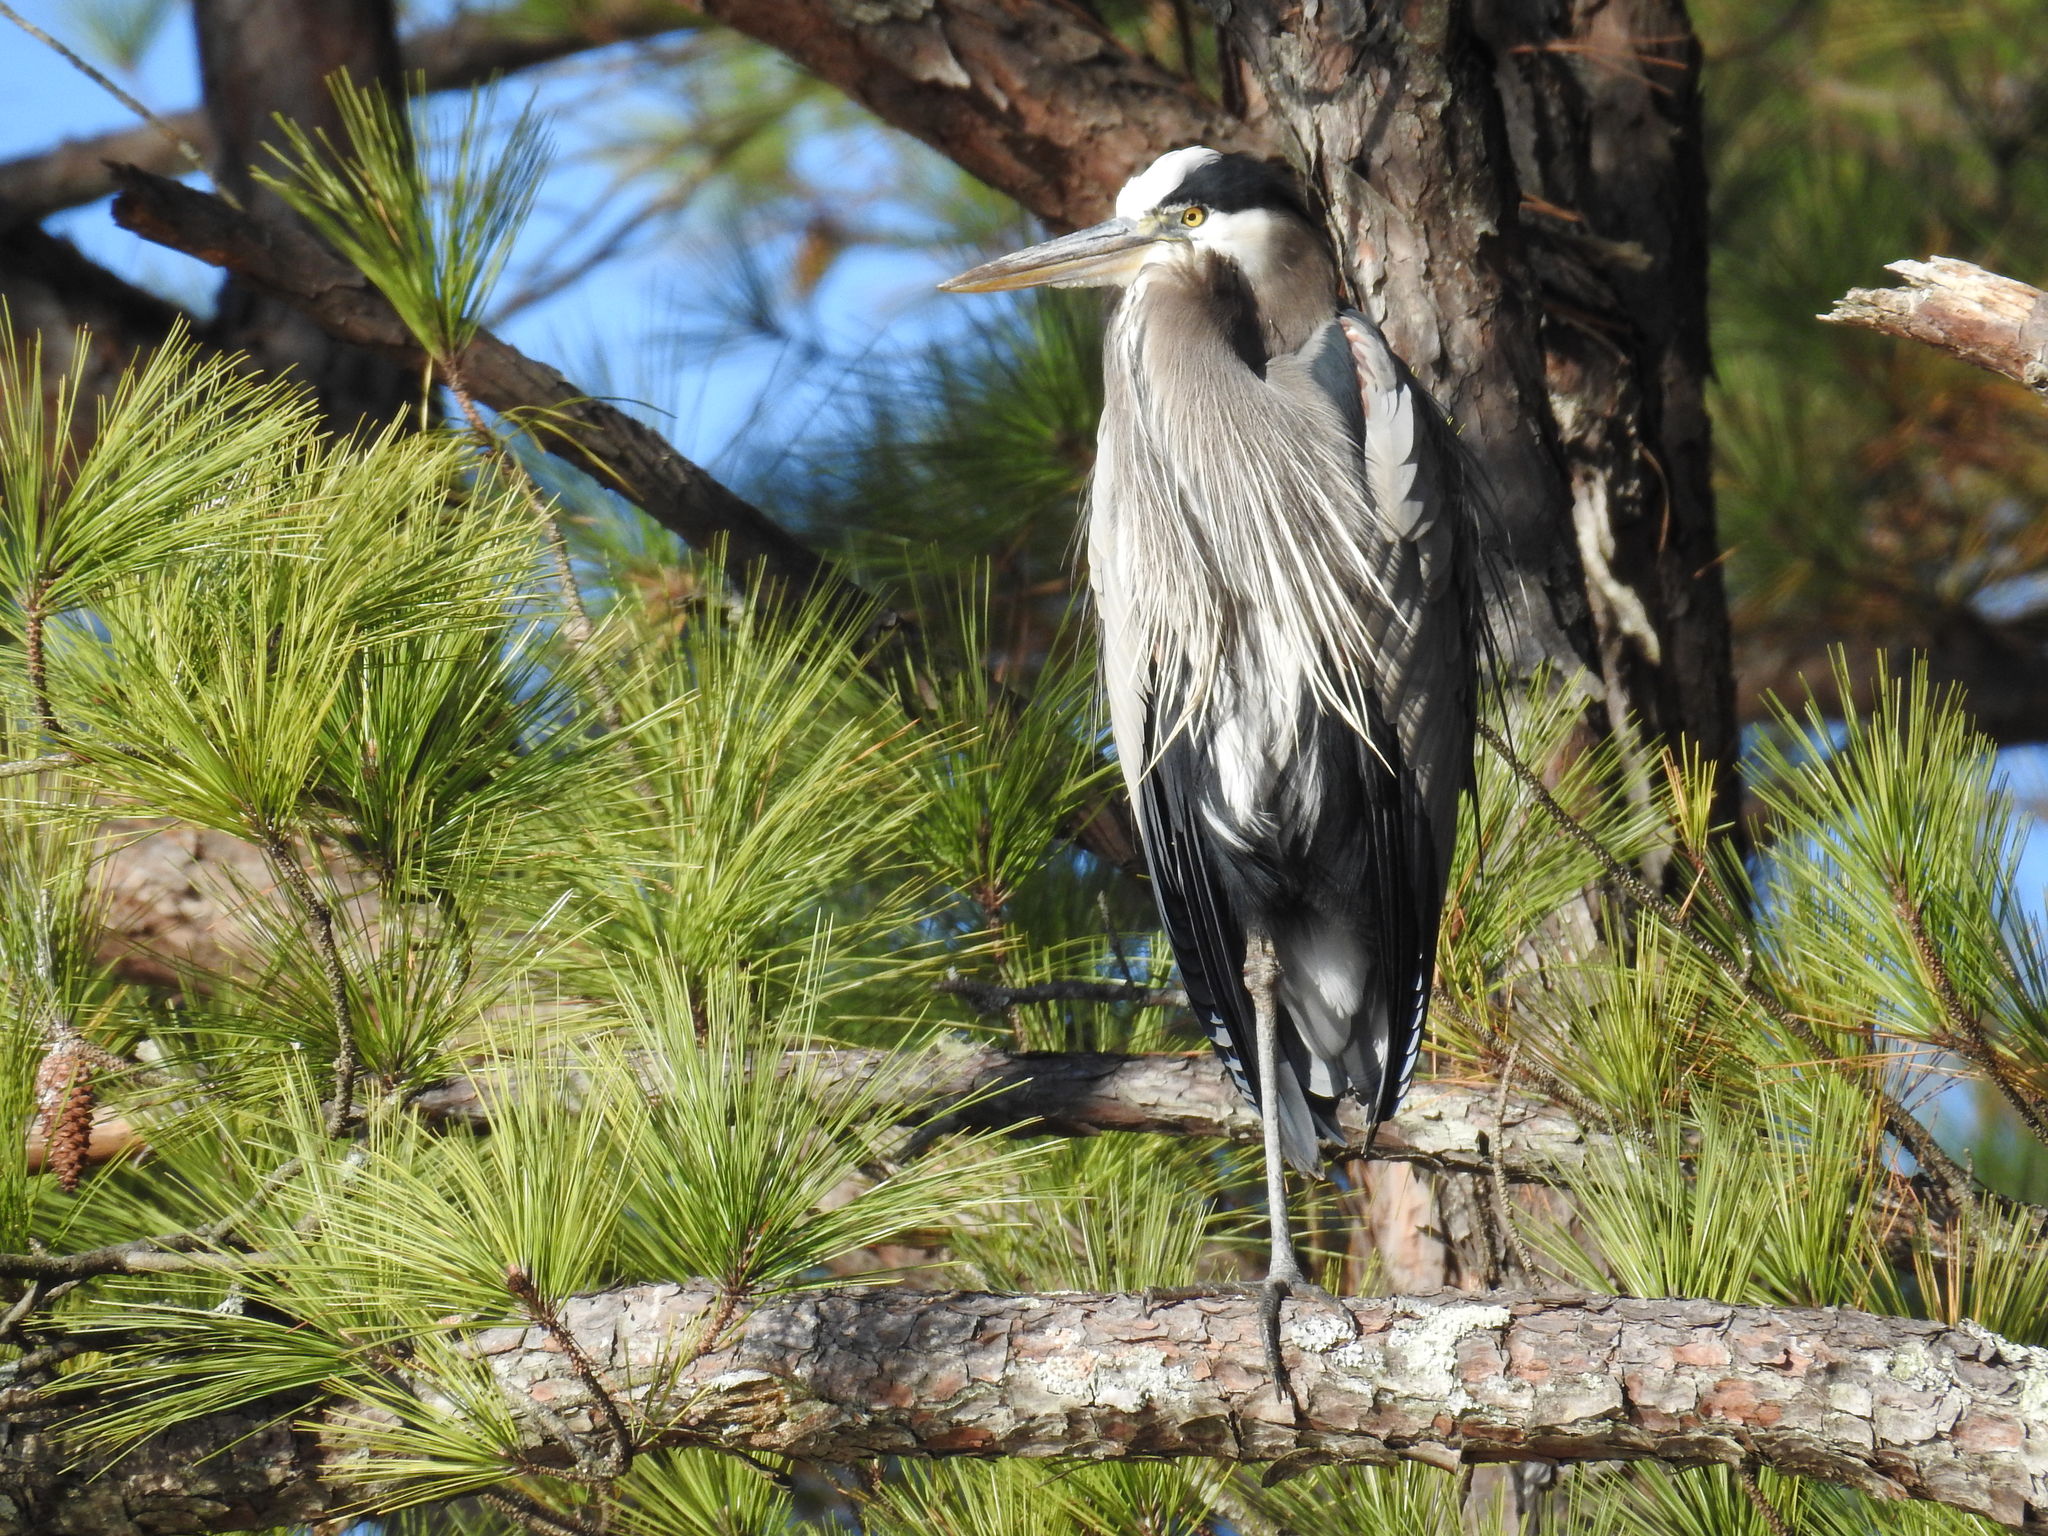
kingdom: Animalia
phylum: Chordata
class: Aves
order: Pelecaniformes
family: Ardeidae
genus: Ardea
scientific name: Ardea herodias
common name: Great blue heron
